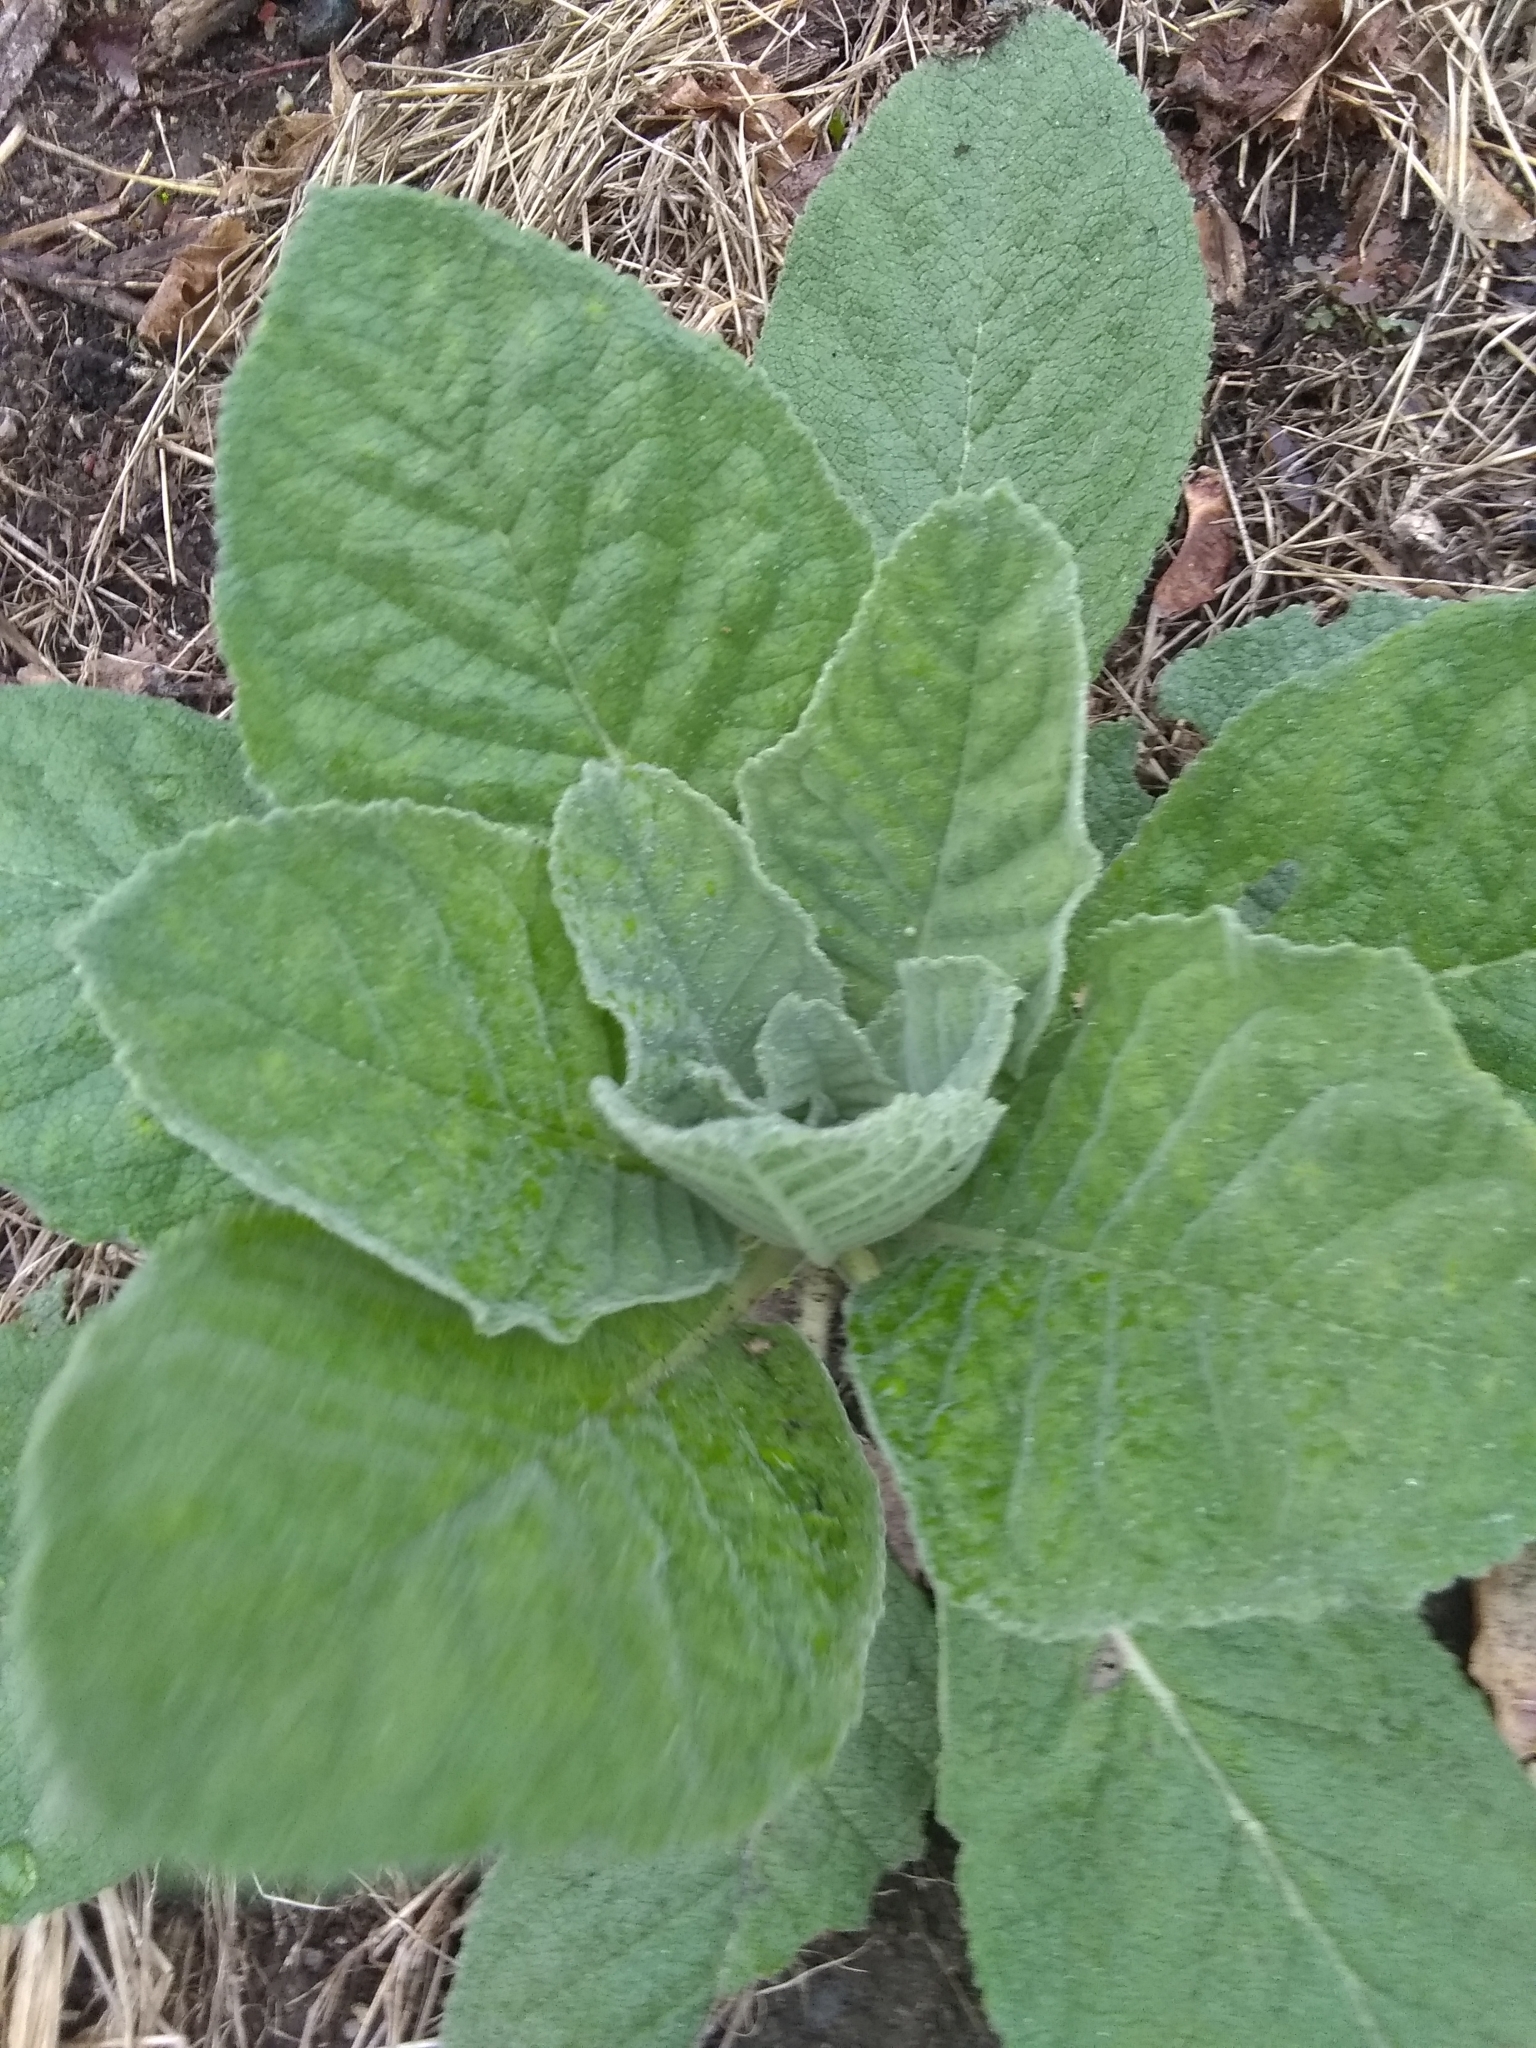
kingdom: Plantae
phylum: Tracheophyta
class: Magnoliopsida
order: Lamiales
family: Scrophulariaceae
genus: Verbascum
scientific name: Verbascum thapsus
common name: Common mullein
